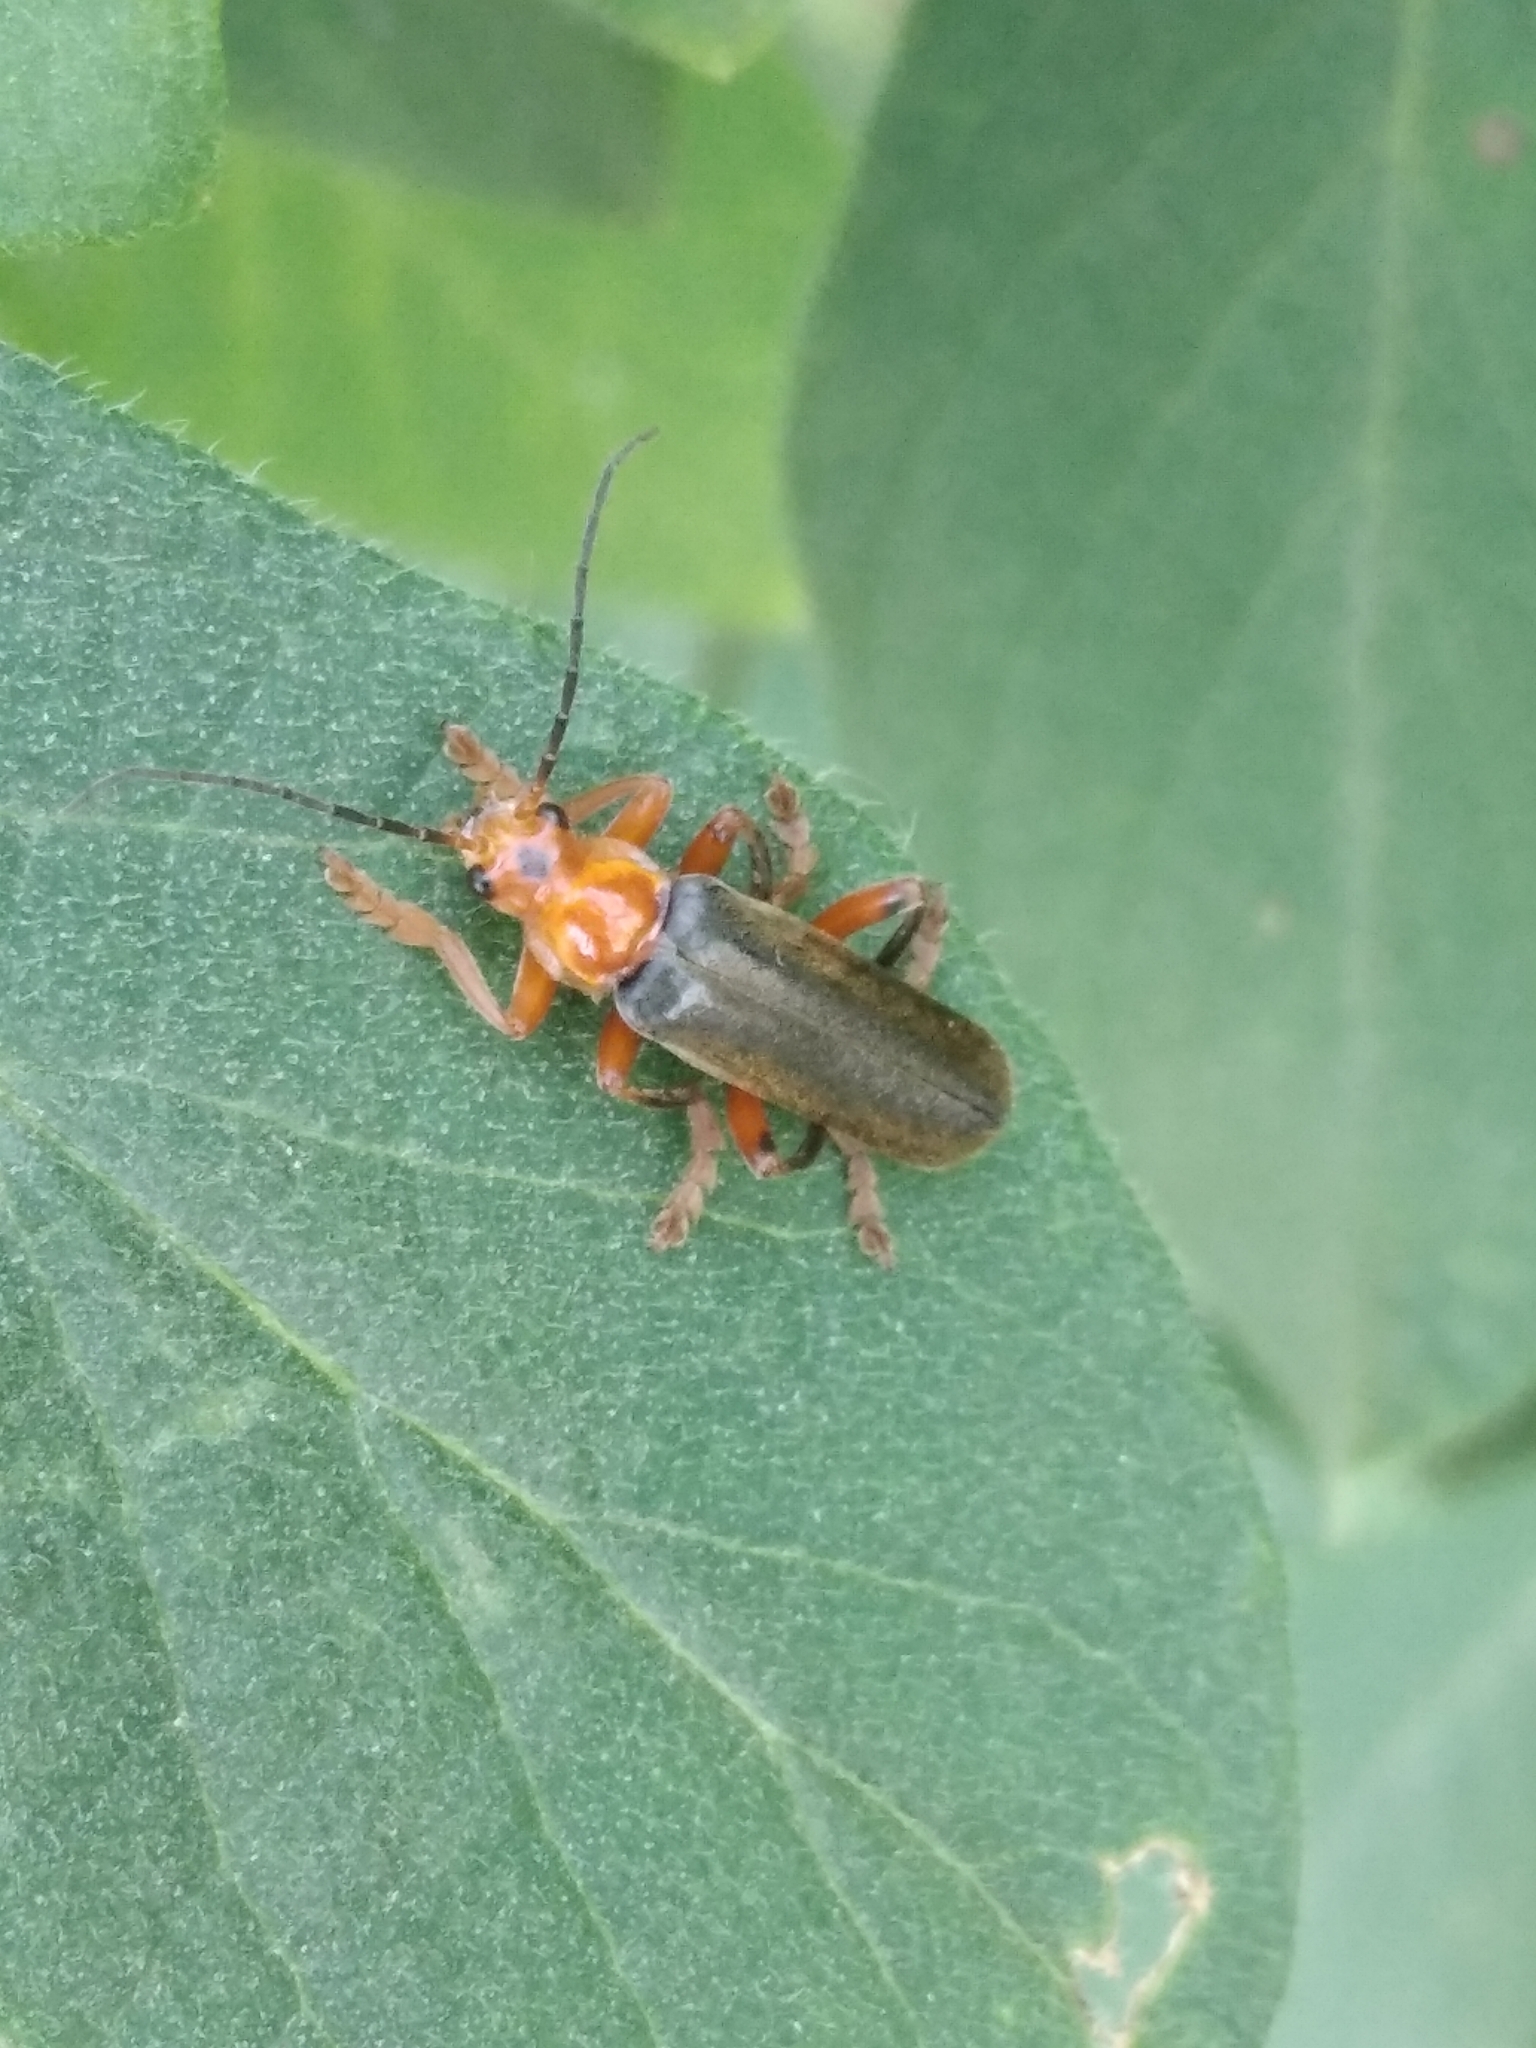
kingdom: Animalia
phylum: Arthropoda
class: Insecta
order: Coleoptera
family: Cantharidae
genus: Cantharis
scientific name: Cantharis livida
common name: Livid soldier beetle
